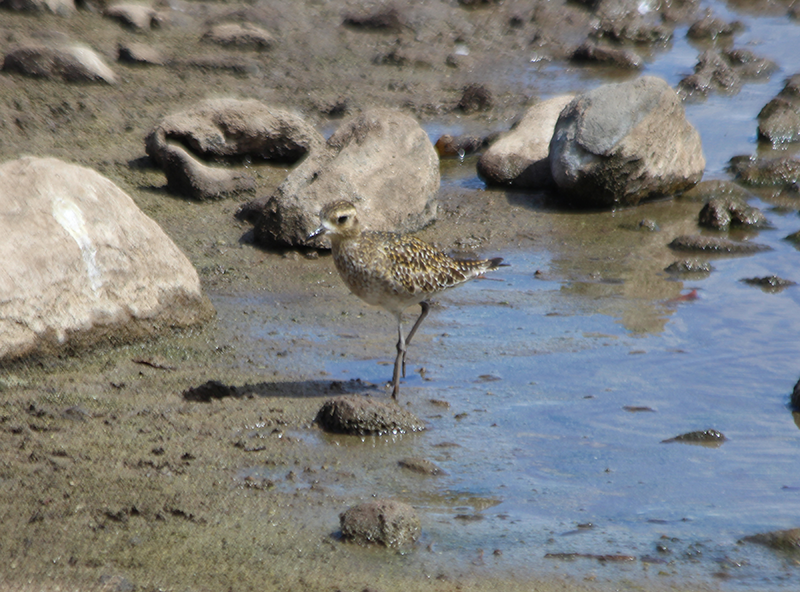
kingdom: Animalia
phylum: Chordata
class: Aves
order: Charadriiformes
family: Charadriidae
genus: Pluvialis
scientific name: Pluvialis fulva
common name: Pacific golden plover
